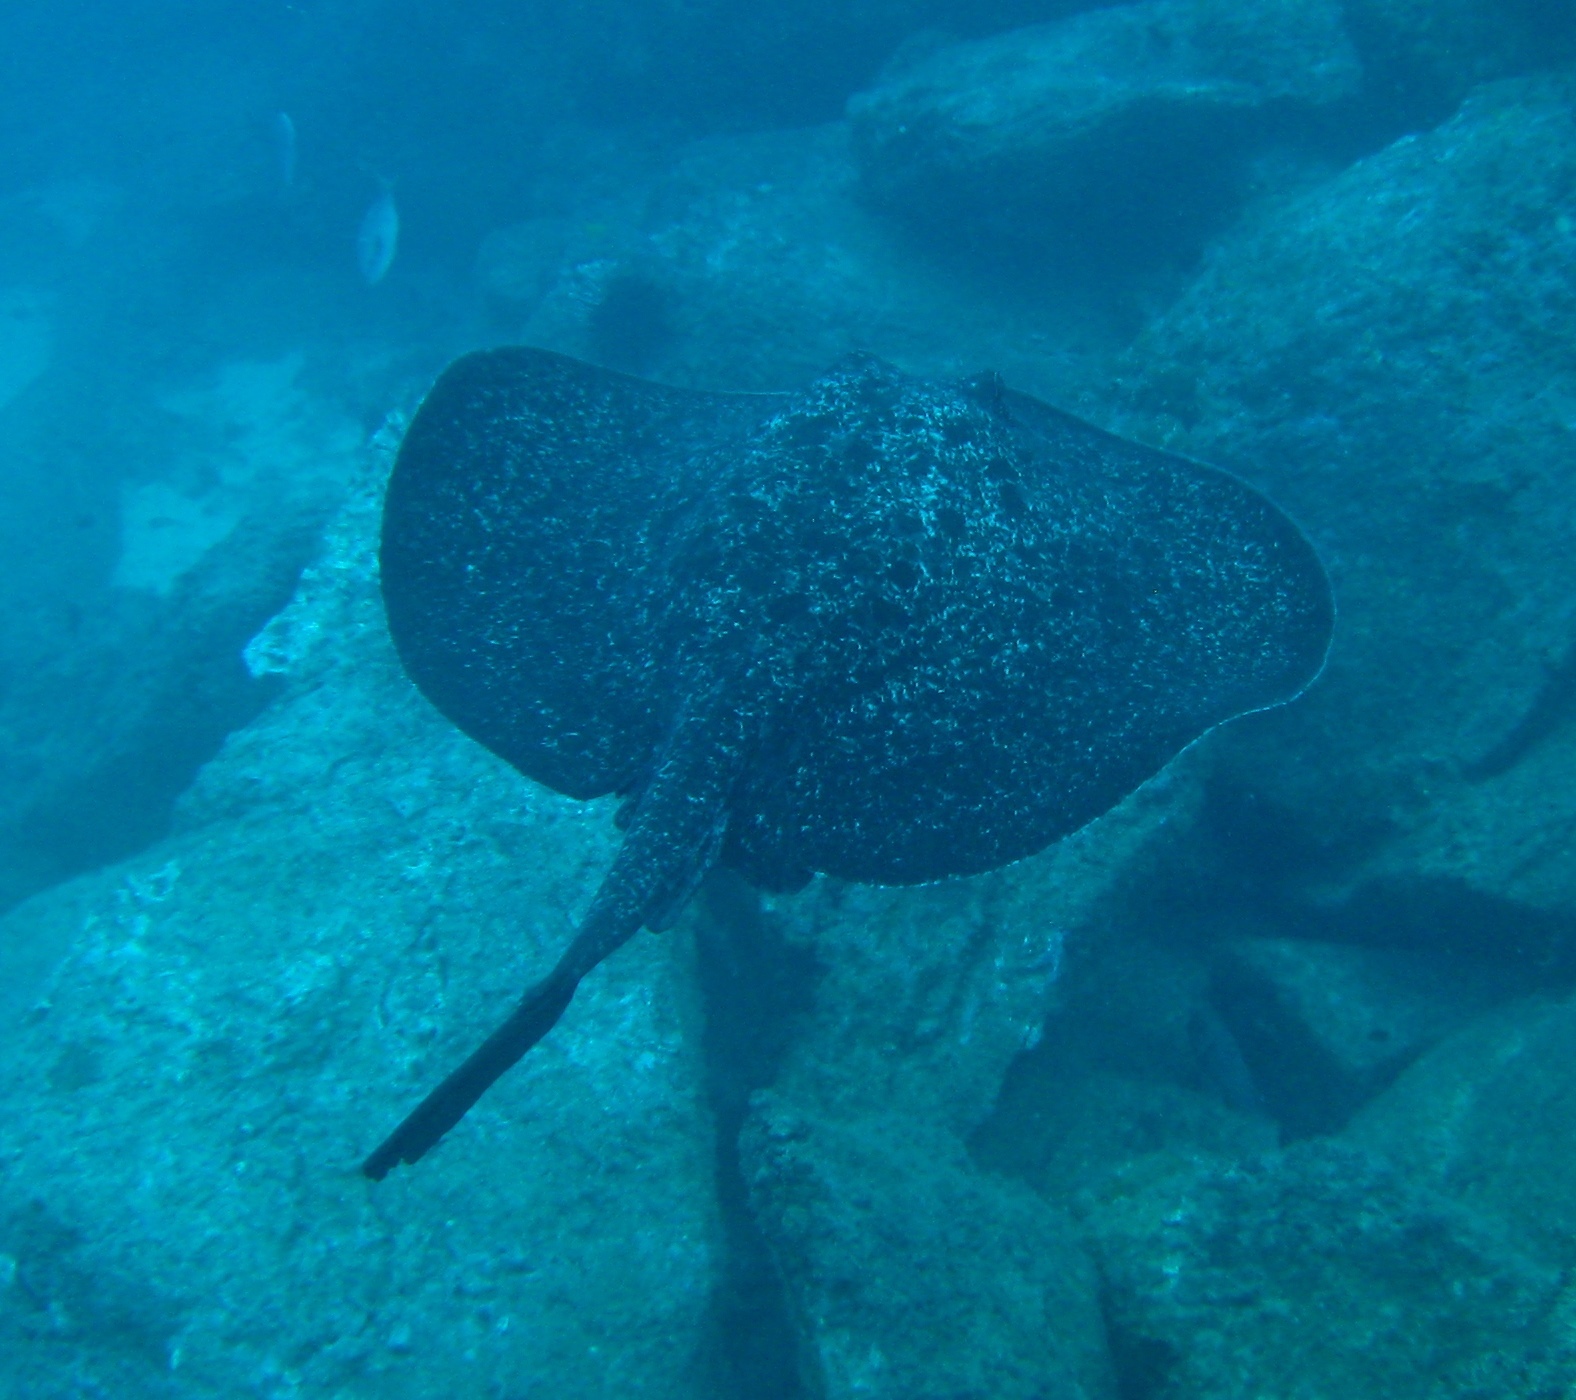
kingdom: Animalia
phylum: Chordata
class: Elasmobranchii
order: Myliobatiformes
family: Dasyatidae
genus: Taeniurops
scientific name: Taeniurops meyeni
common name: Black-blotched stingray
